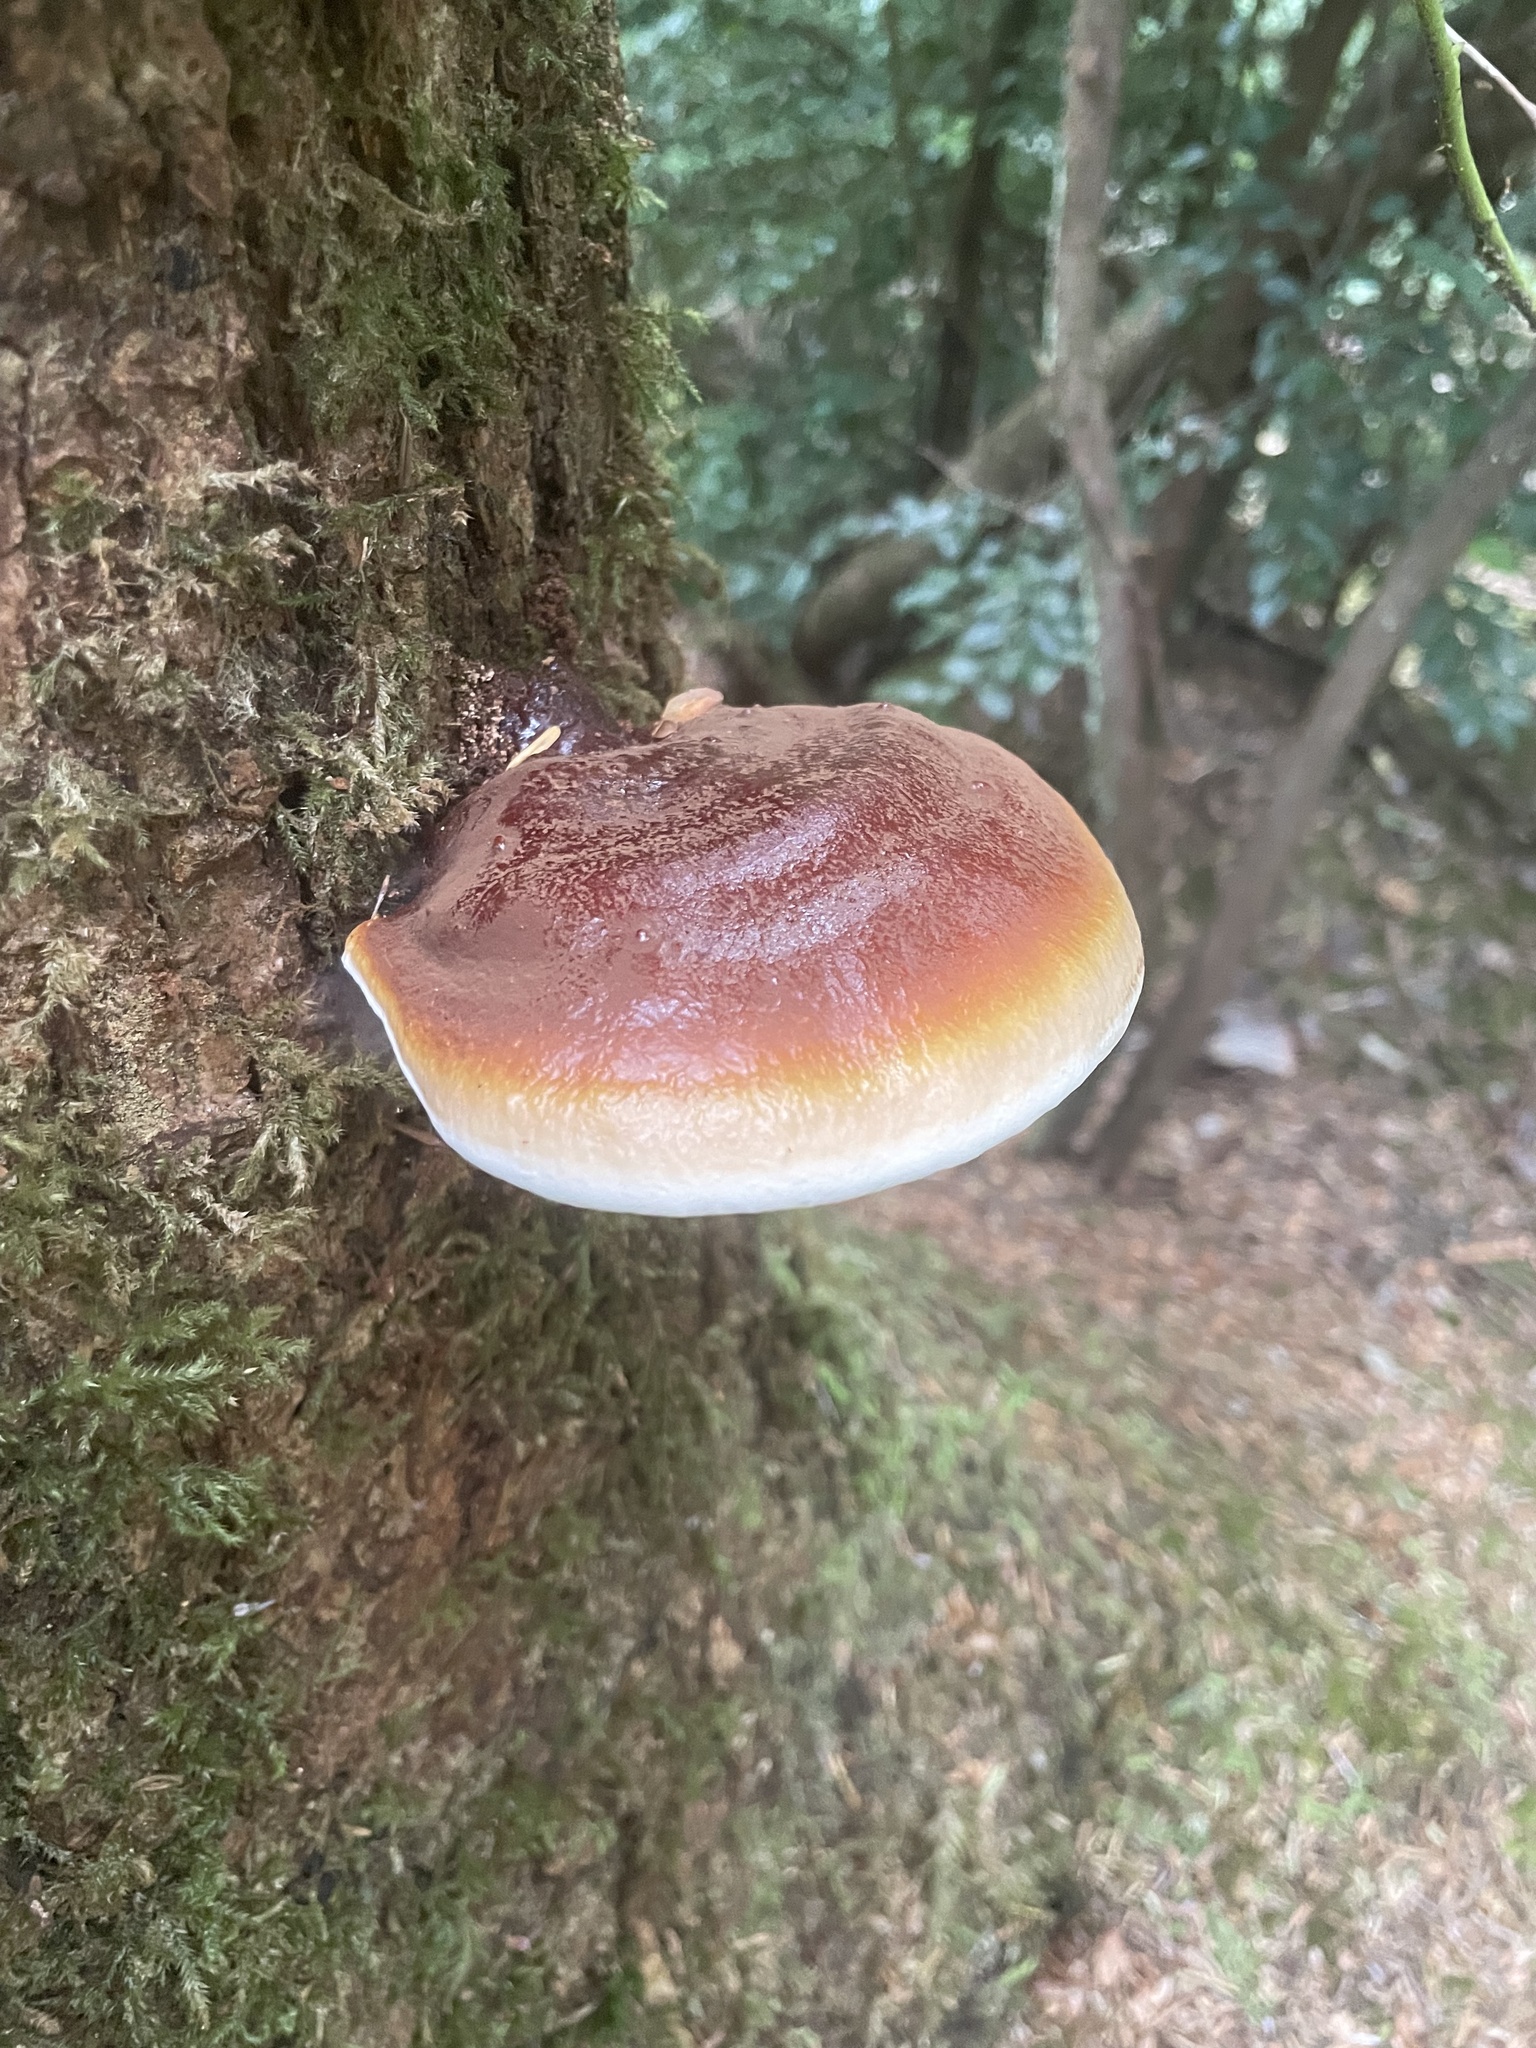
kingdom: Fungi
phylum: Basidiomycota
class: Agaricomycetes
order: Polyporales
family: Polyporaceae
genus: Ganoderma
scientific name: Ganoderma oregonense
